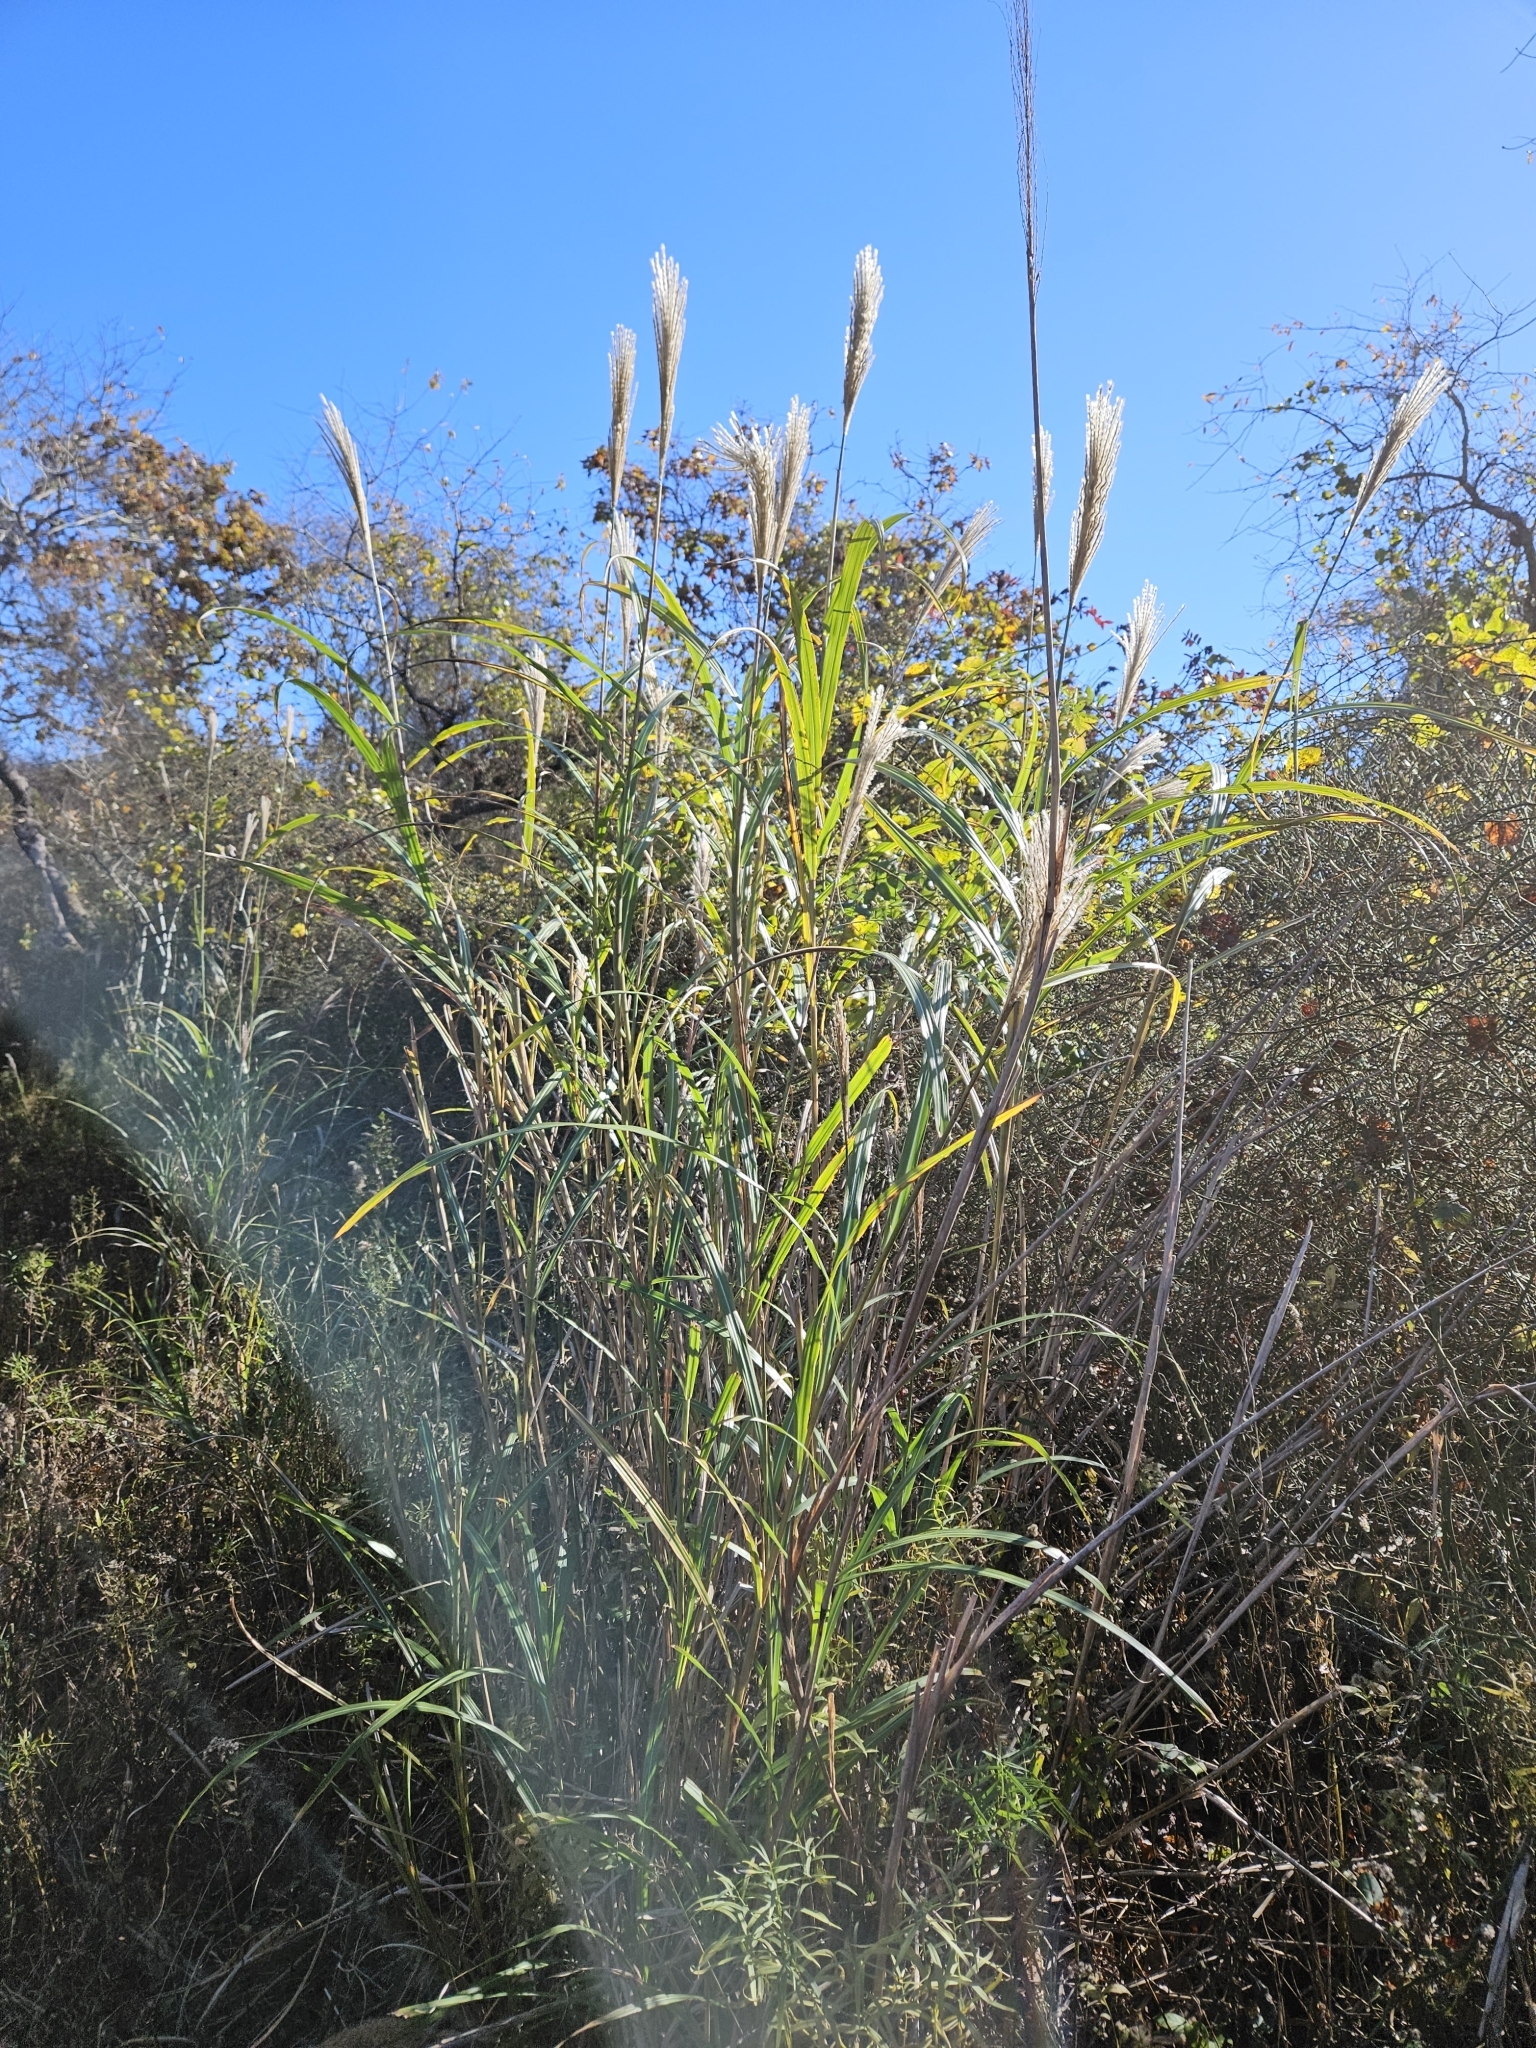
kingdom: Plantae
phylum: Tracheophyta
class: Liliopsida
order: Poales
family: Poaceae
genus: Miscanthus
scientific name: Miscanthus sinensis
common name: Chinese silvergrass
